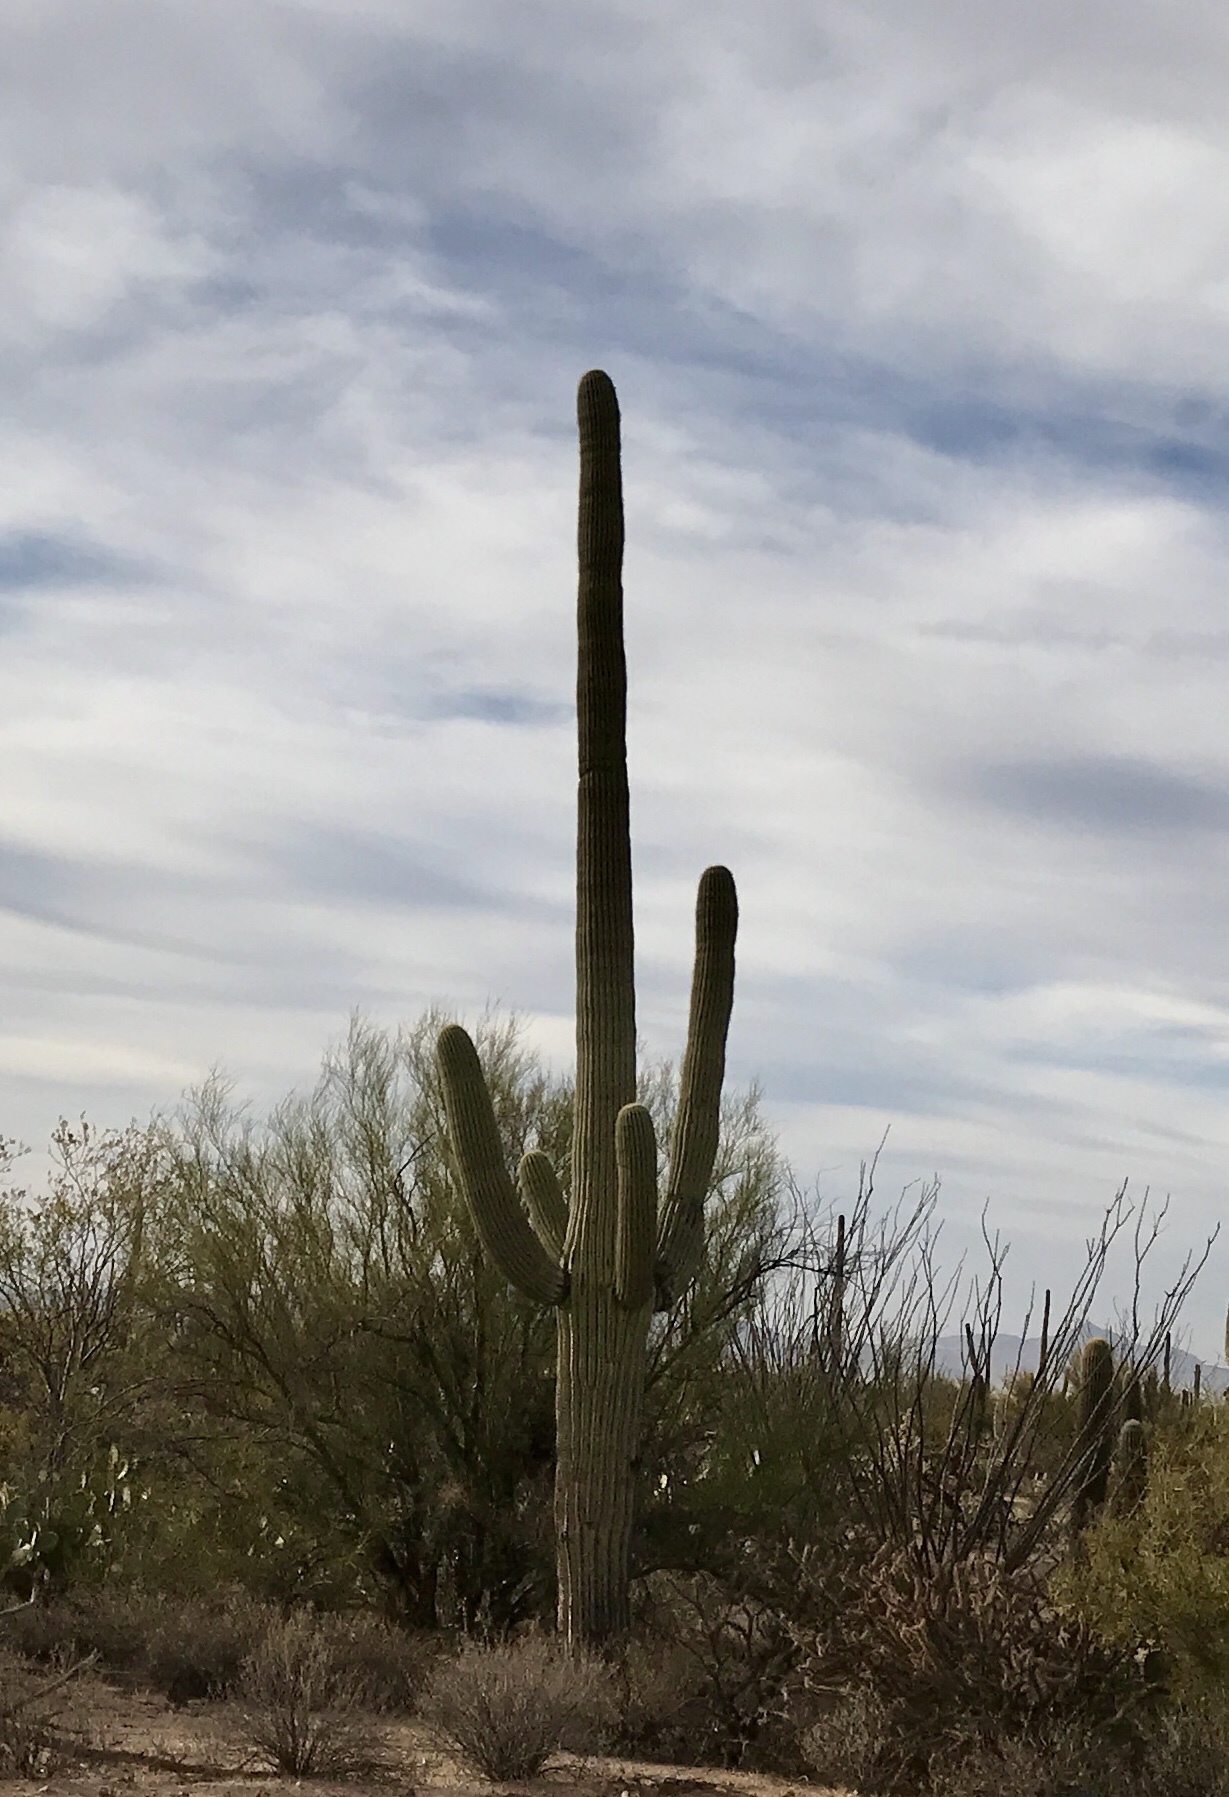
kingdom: Plantae
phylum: Tracheophyta
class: Magnoliopsida
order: Caryophyllales
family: Cactaceae
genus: Carnegiea
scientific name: Carnegiea gigantea
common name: Saguaro
